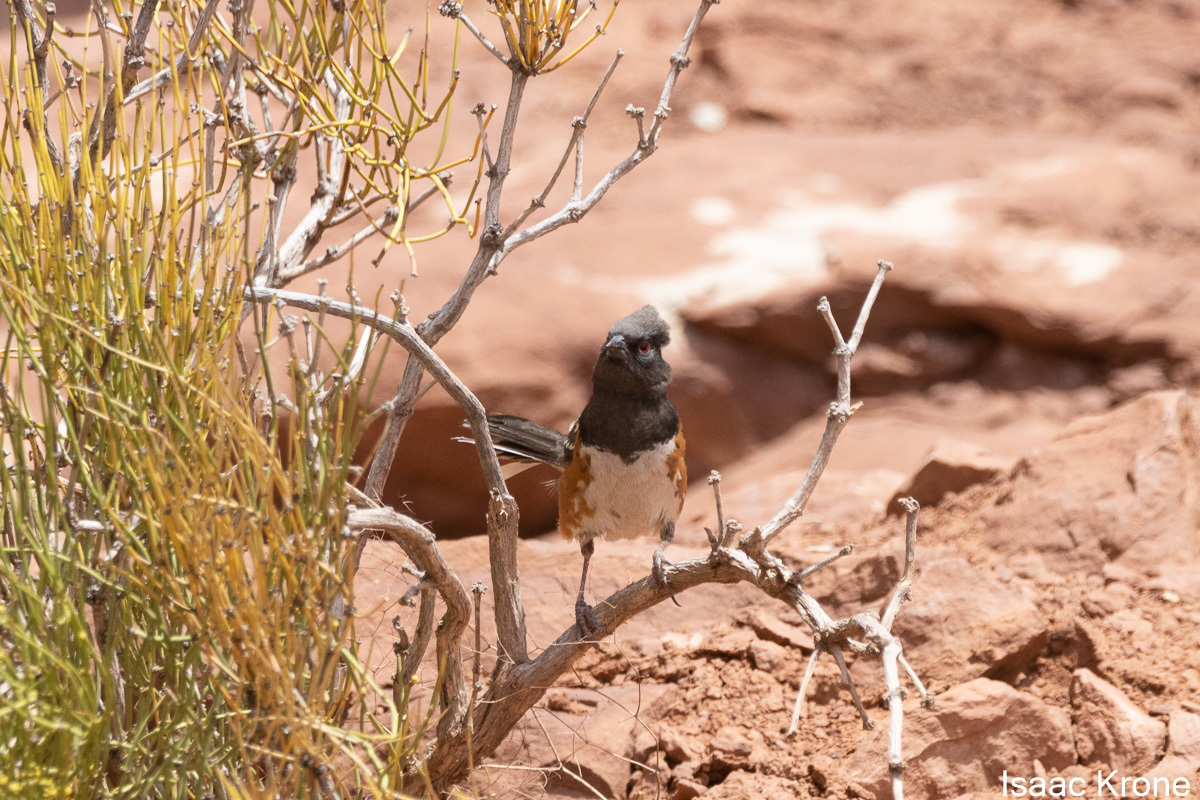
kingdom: Animalia
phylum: Chordata
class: Aves
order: Passeriformes
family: Passerellidae
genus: Pipilo
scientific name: Pipilo maculatus
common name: Spotted towhee
